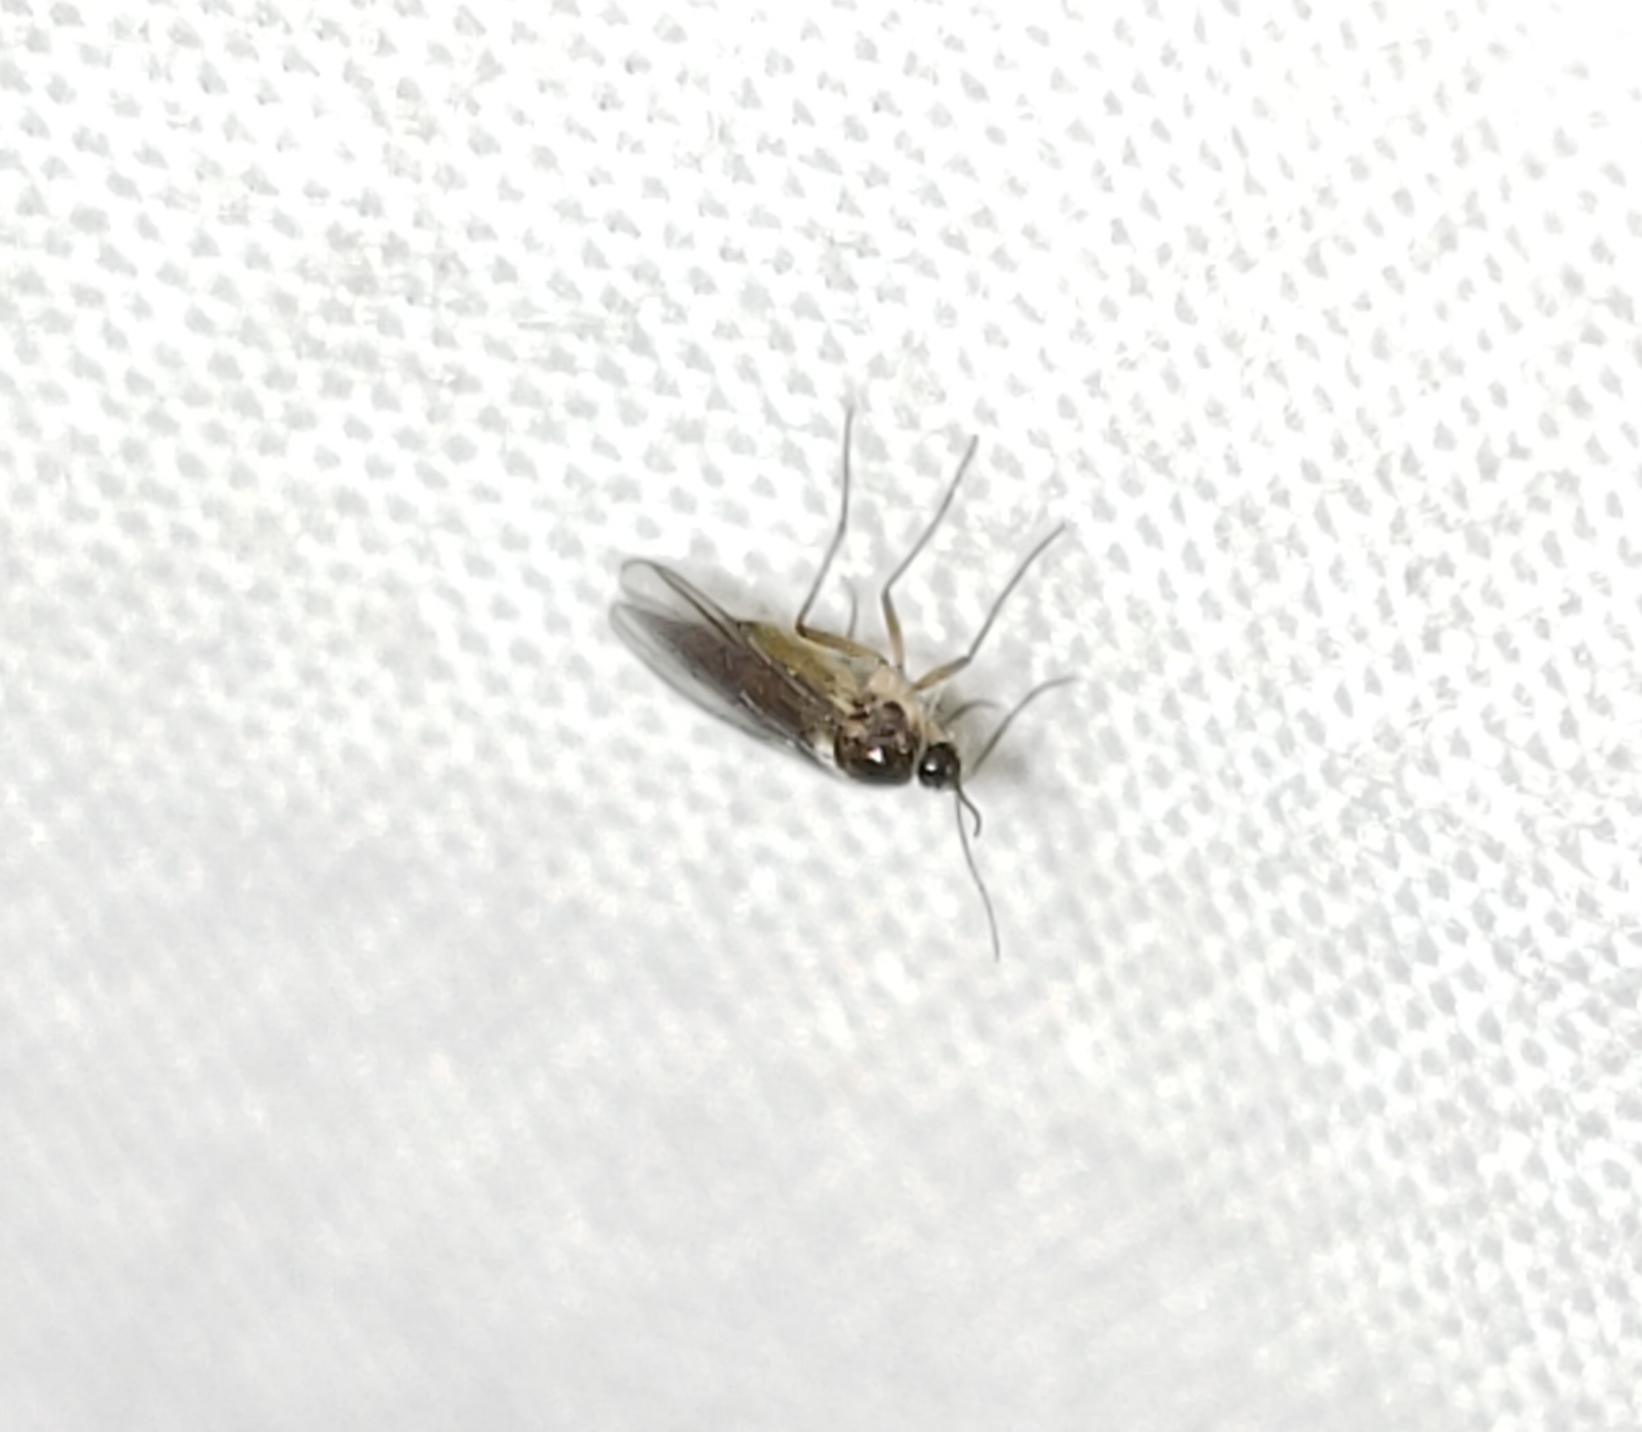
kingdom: Animalia
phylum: Arthropoda
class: Insecta
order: Diptera
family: Sciaridae
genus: Bradysia
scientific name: Bradysia
